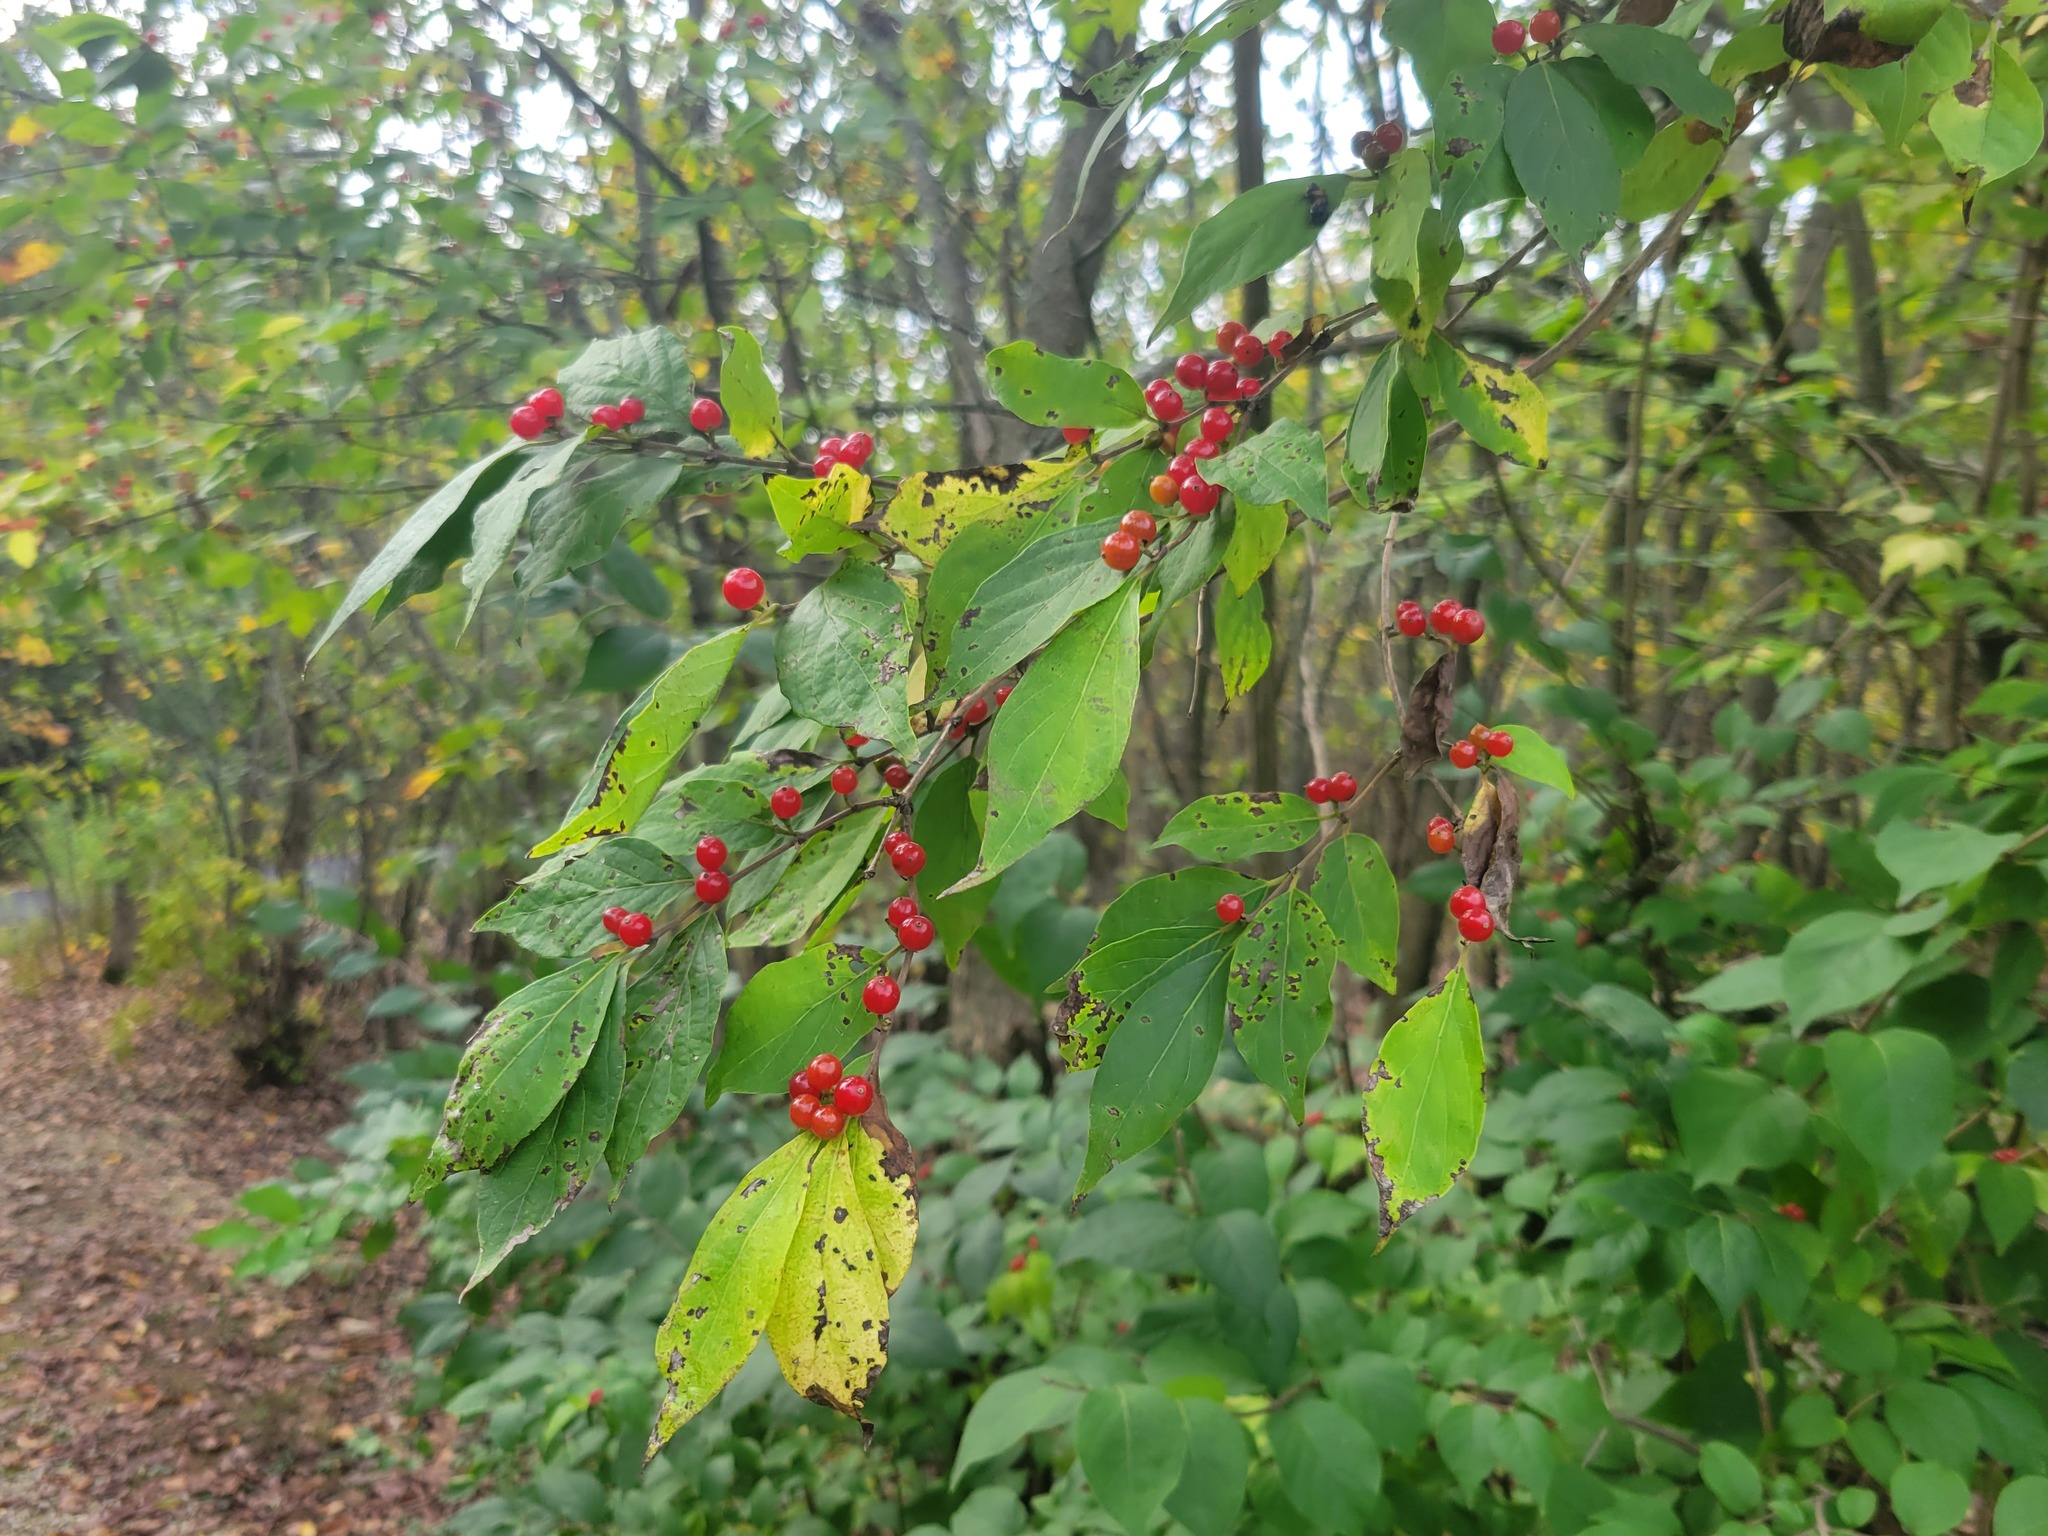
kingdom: Plantae
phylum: Tracheophyta
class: Magnoliopsida
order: Dipsacales
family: Caprifoliaceae
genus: Lonicera
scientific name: Lonicera maackii
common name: Amur honeysuckle
